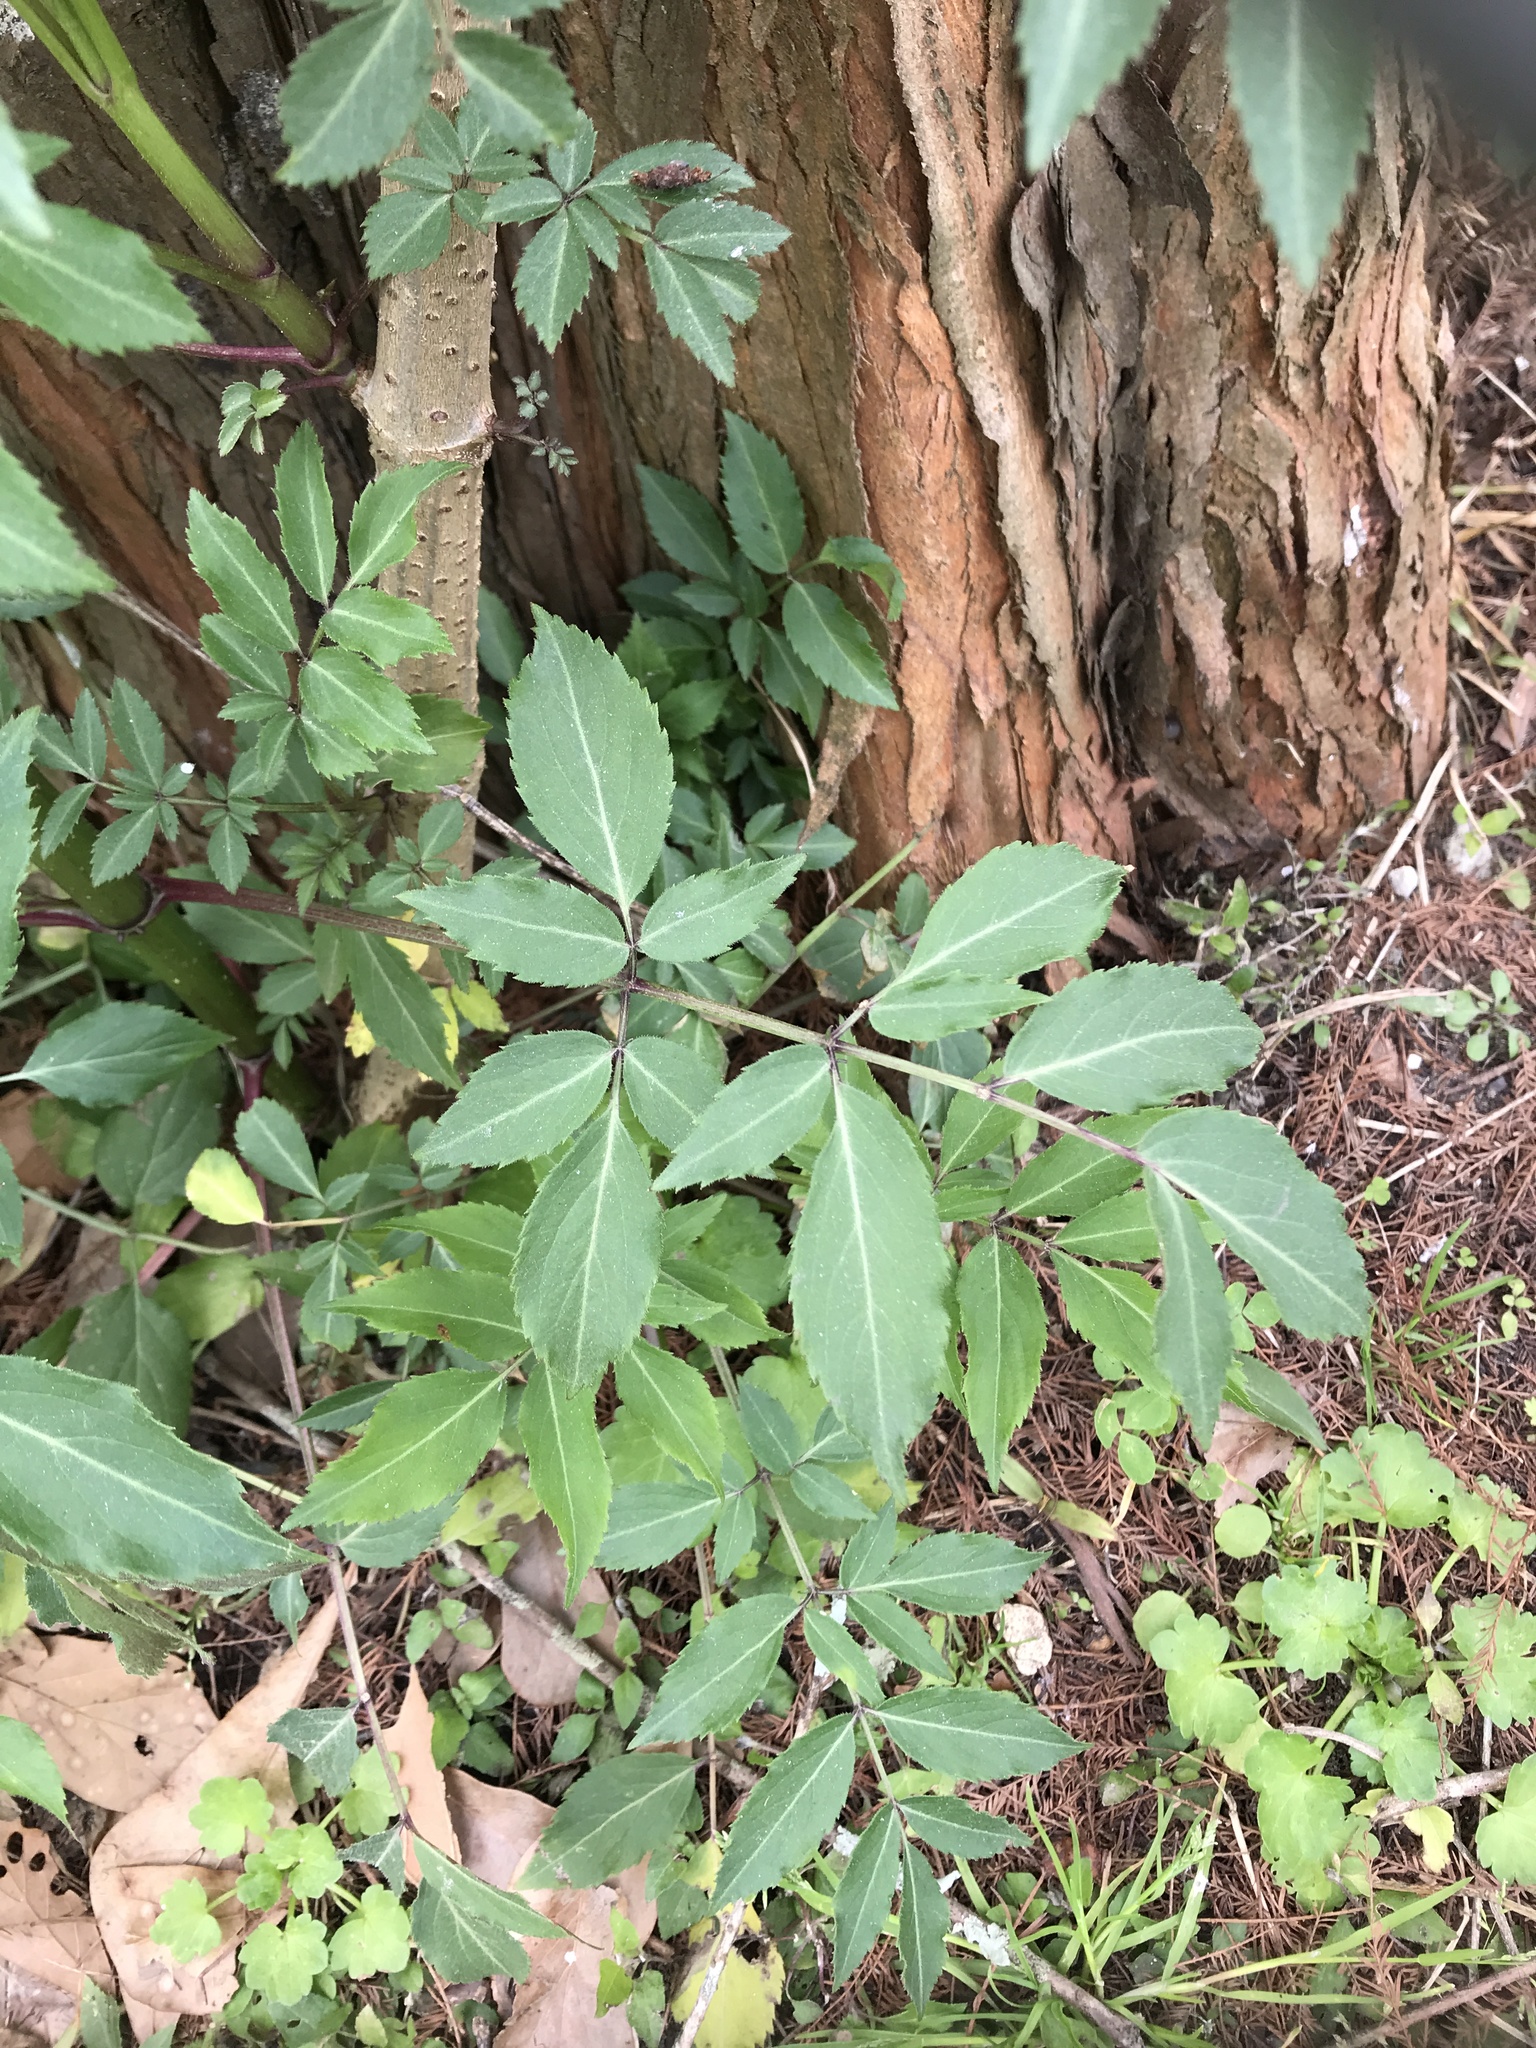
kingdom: Plantae
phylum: Tracheophyta
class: Magnoliopsida
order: Dipsacales
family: Viburnaceae
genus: Sambucus
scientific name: Sambucus canadensis
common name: American elder
